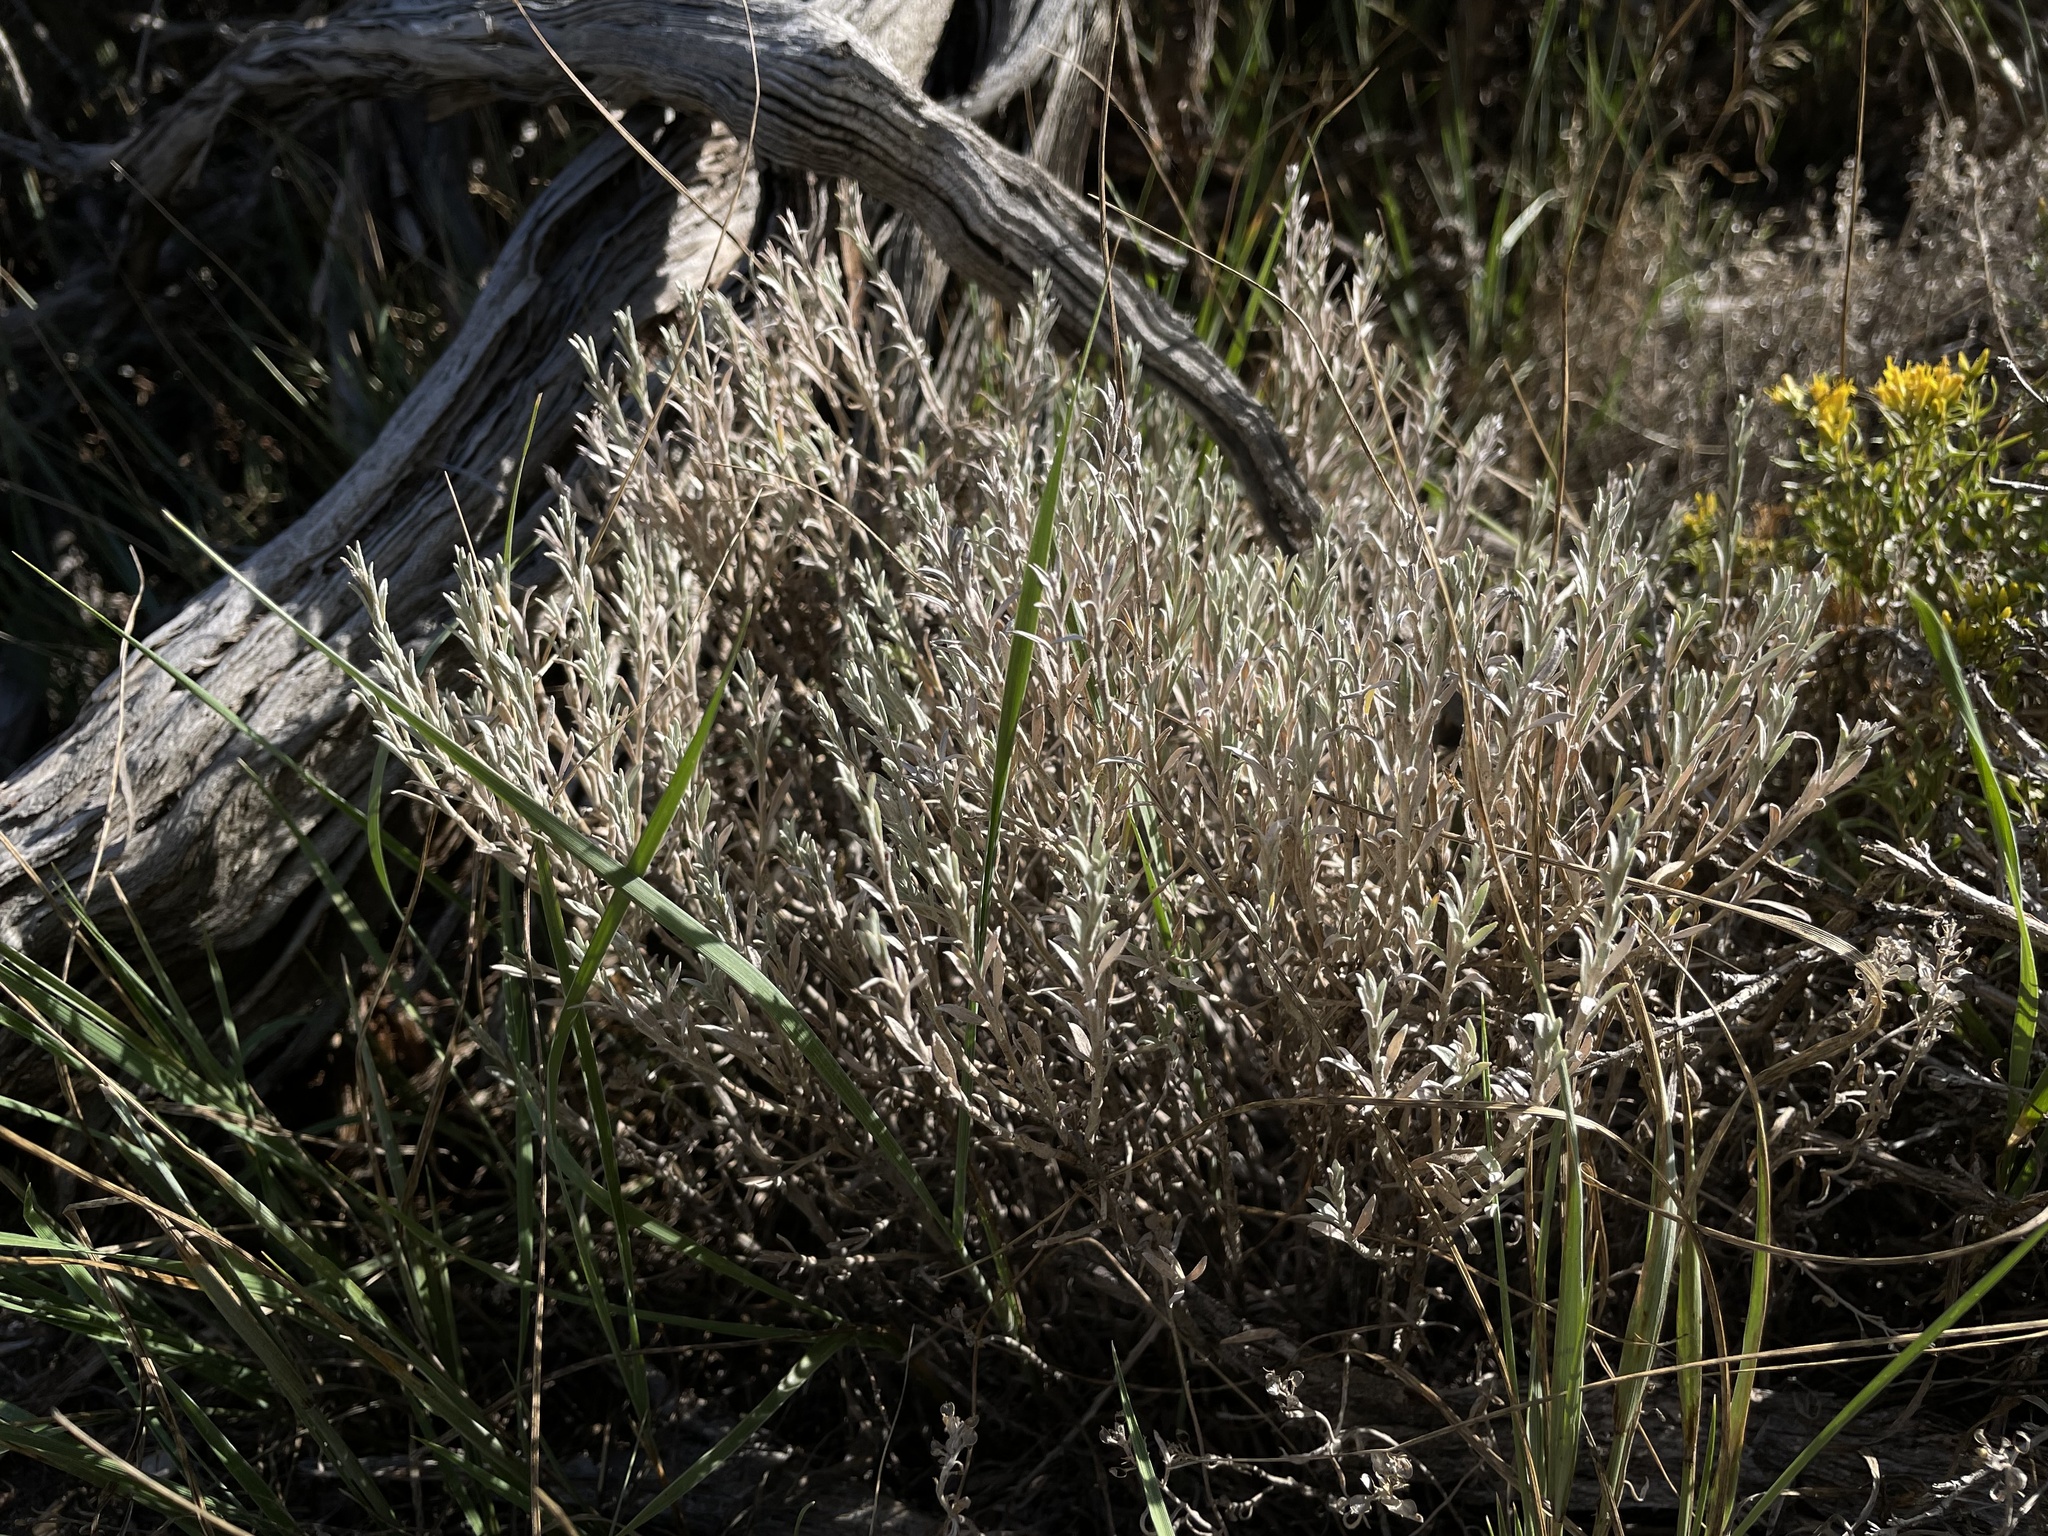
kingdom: Plantae
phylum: Tracheophyta
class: Magnoliopsida
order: Asterales
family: Asteraceae
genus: Tetradymia
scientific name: Tetradymia canescens
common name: Spineless horsebrush
